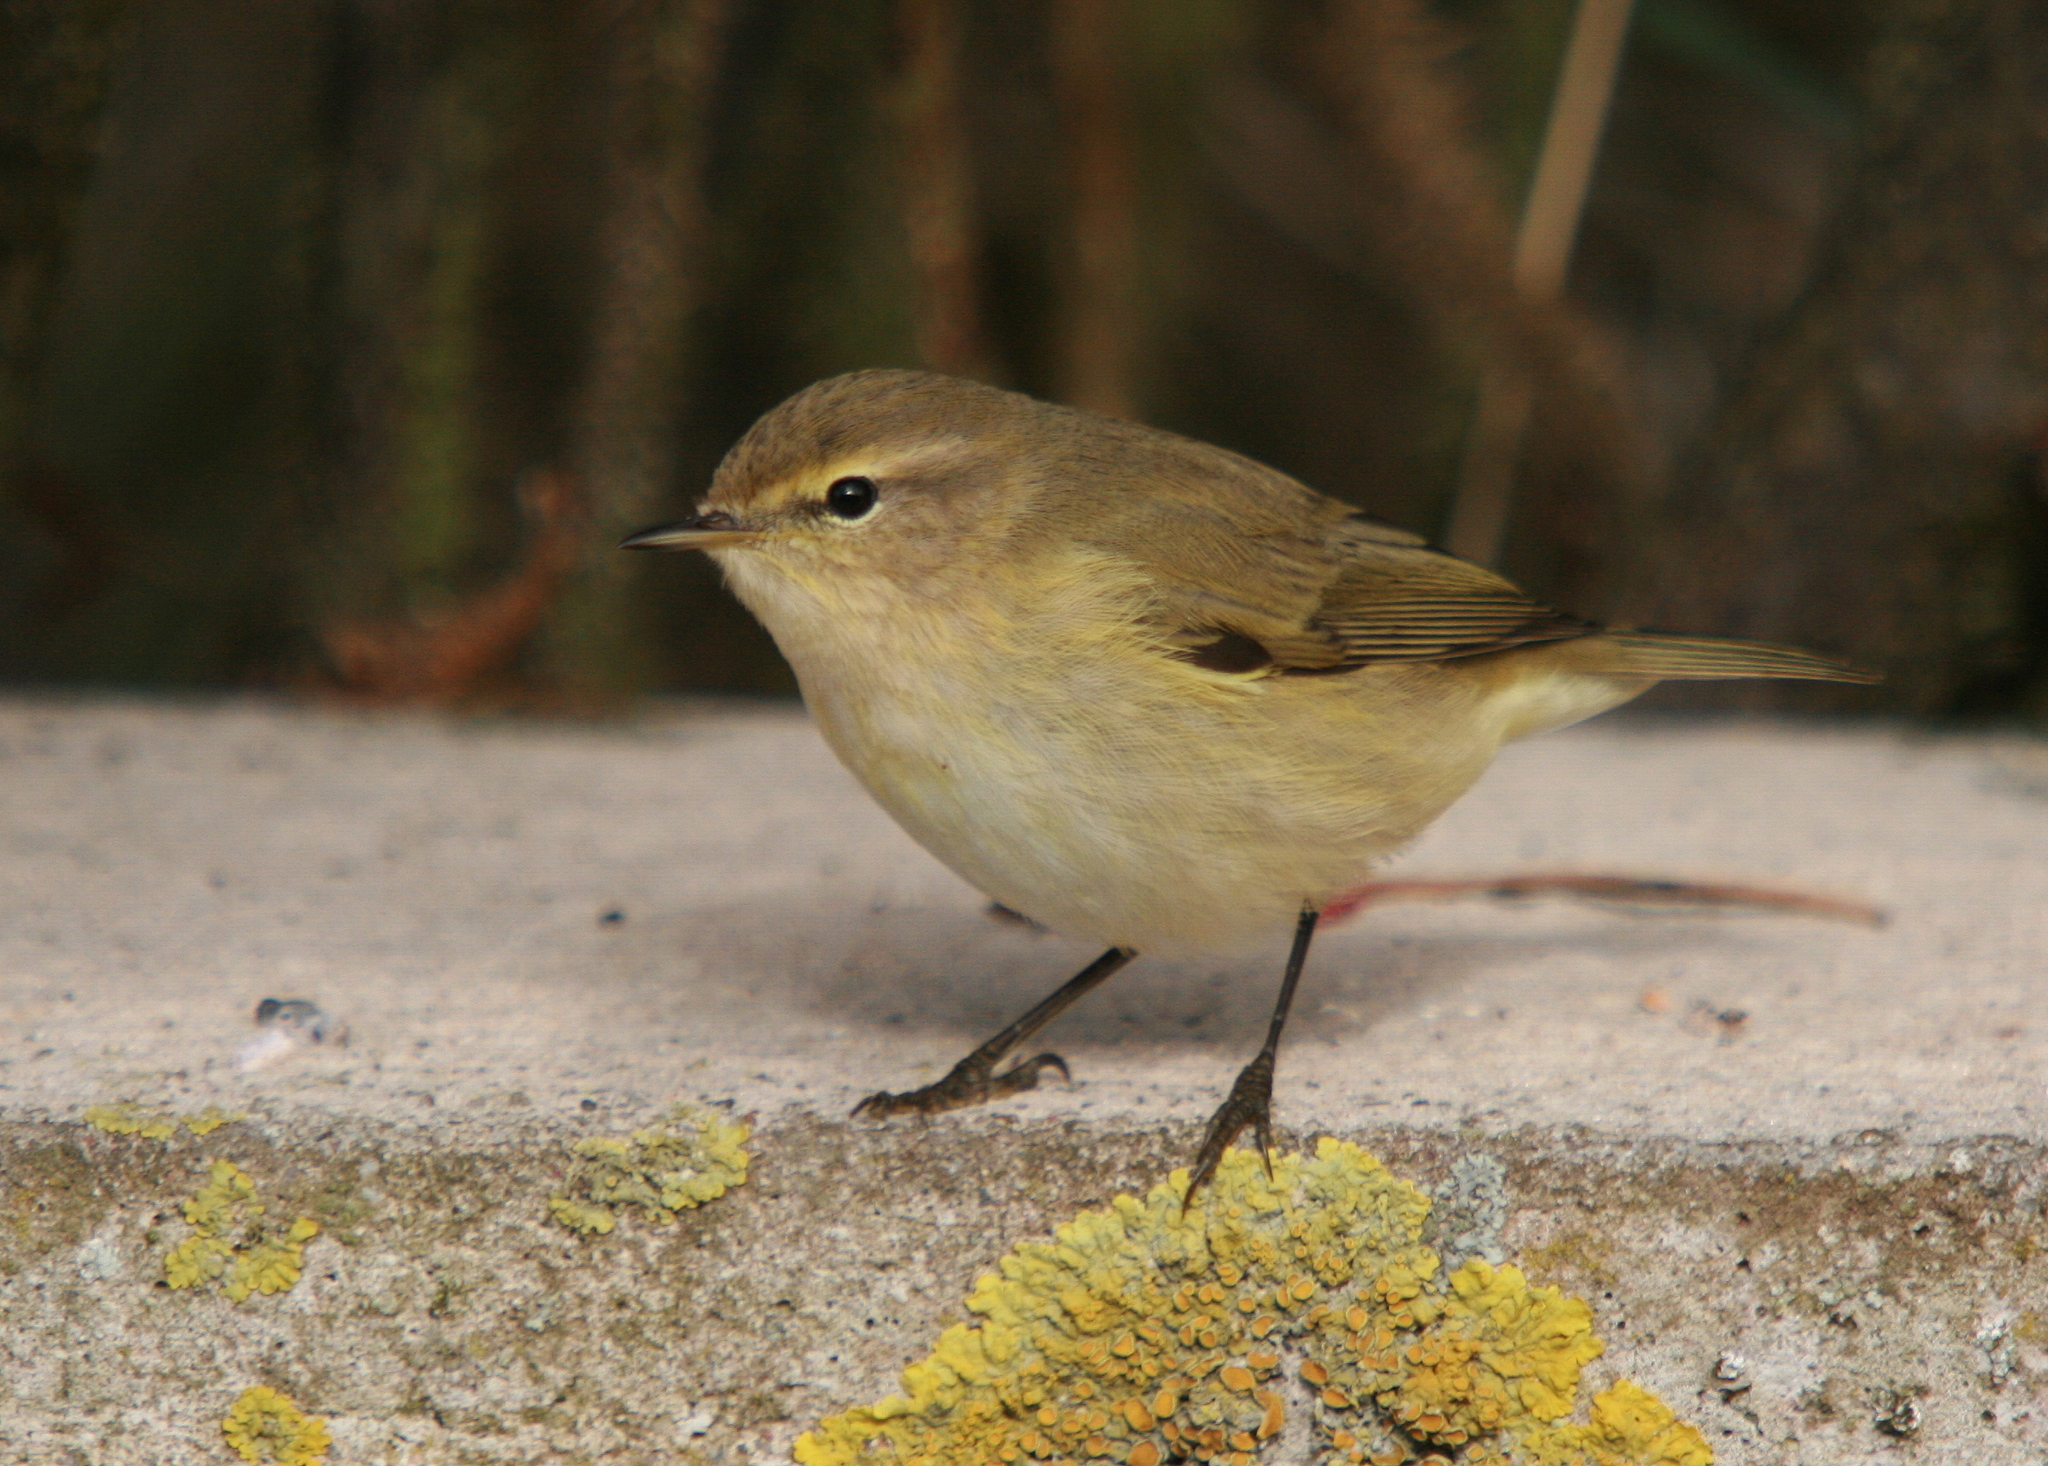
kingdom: Animalia
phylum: Chordata
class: Aves
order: Passeriformes
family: Phylloscopidae
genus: Phylloscopus
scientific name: Phylloscopus collybita
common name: Common chiffchaff
